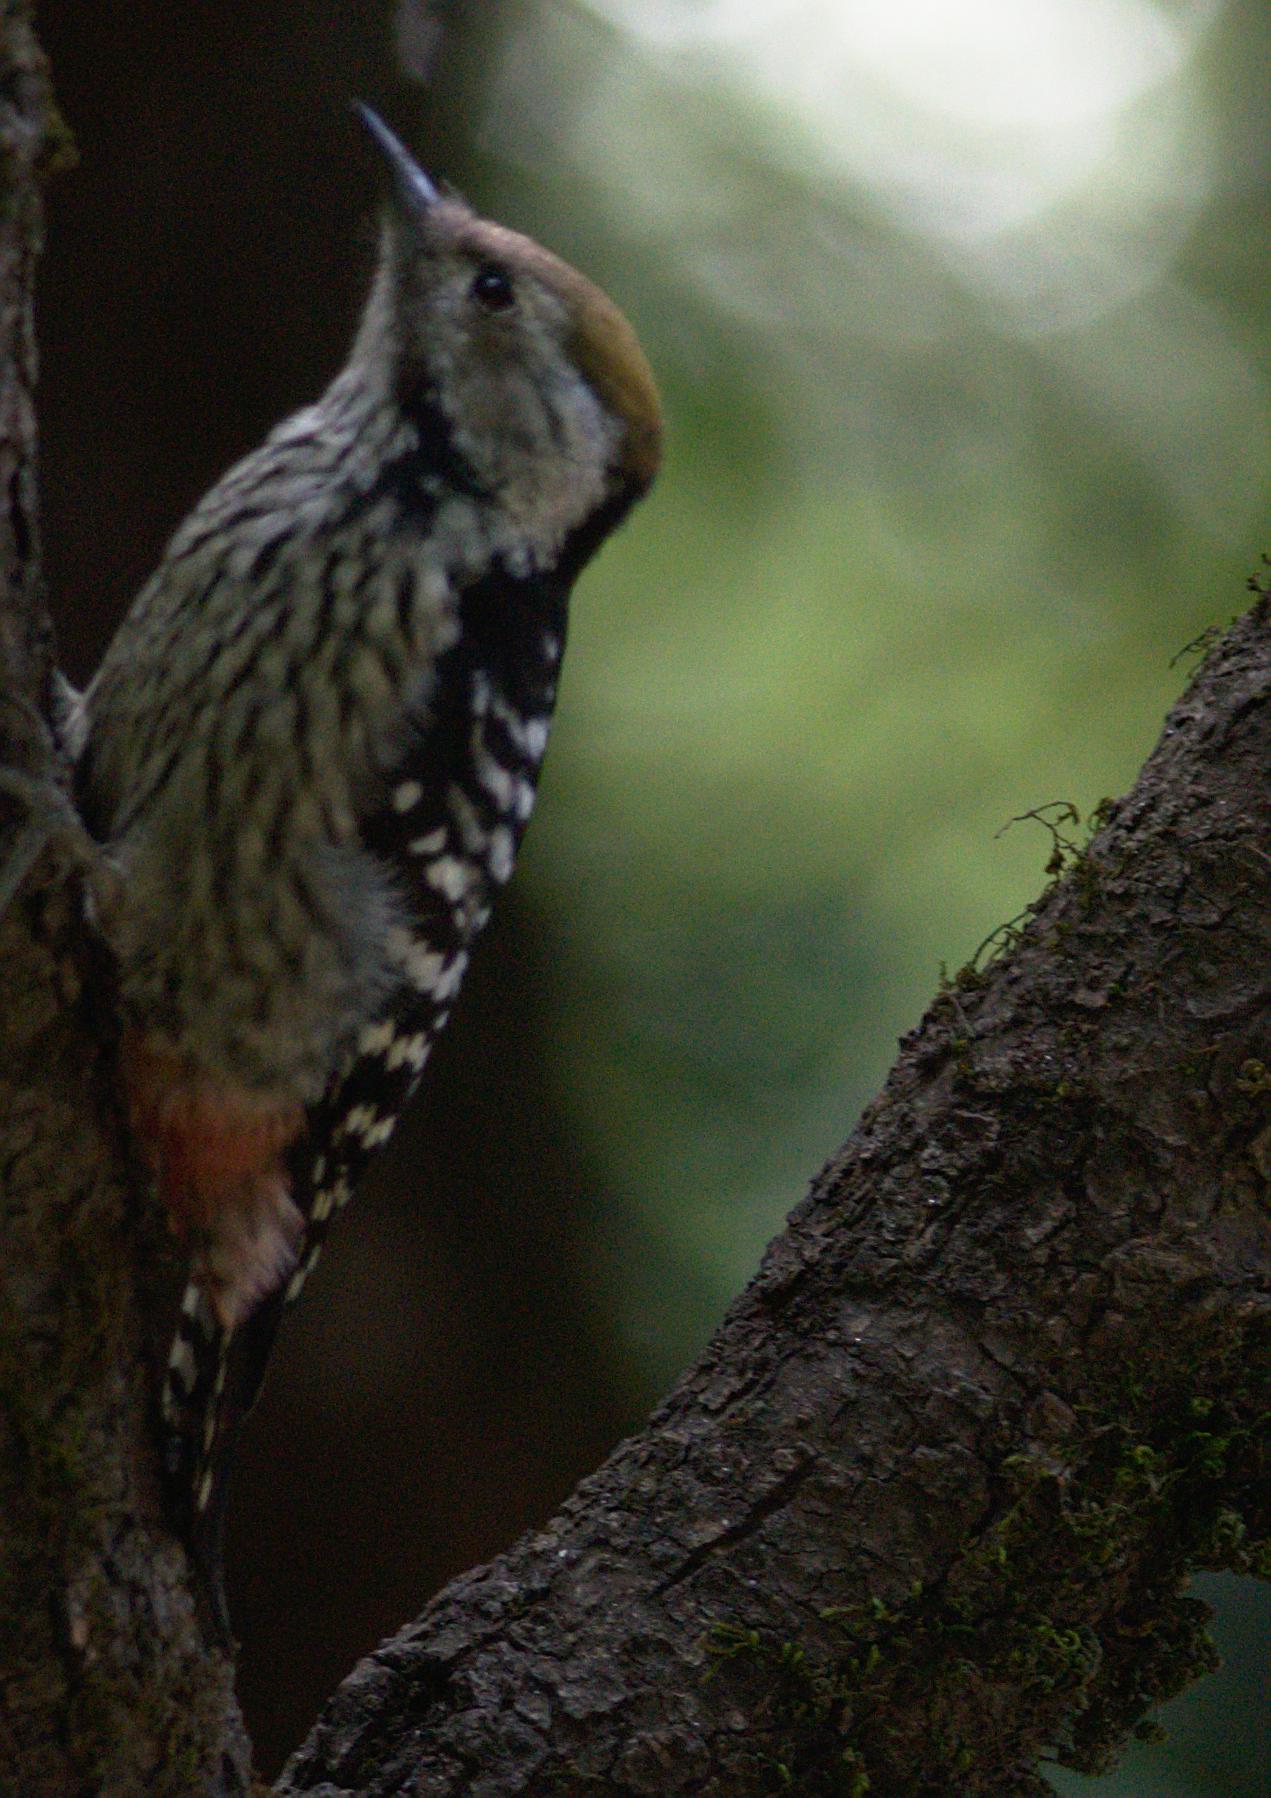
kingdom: Animalia
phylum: Chordata
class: Aves
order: Piciformes
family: Picidae
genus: Dendrocoptes
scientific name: Dendrocoptes auriceps
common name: Brown-fronted woodpecker
